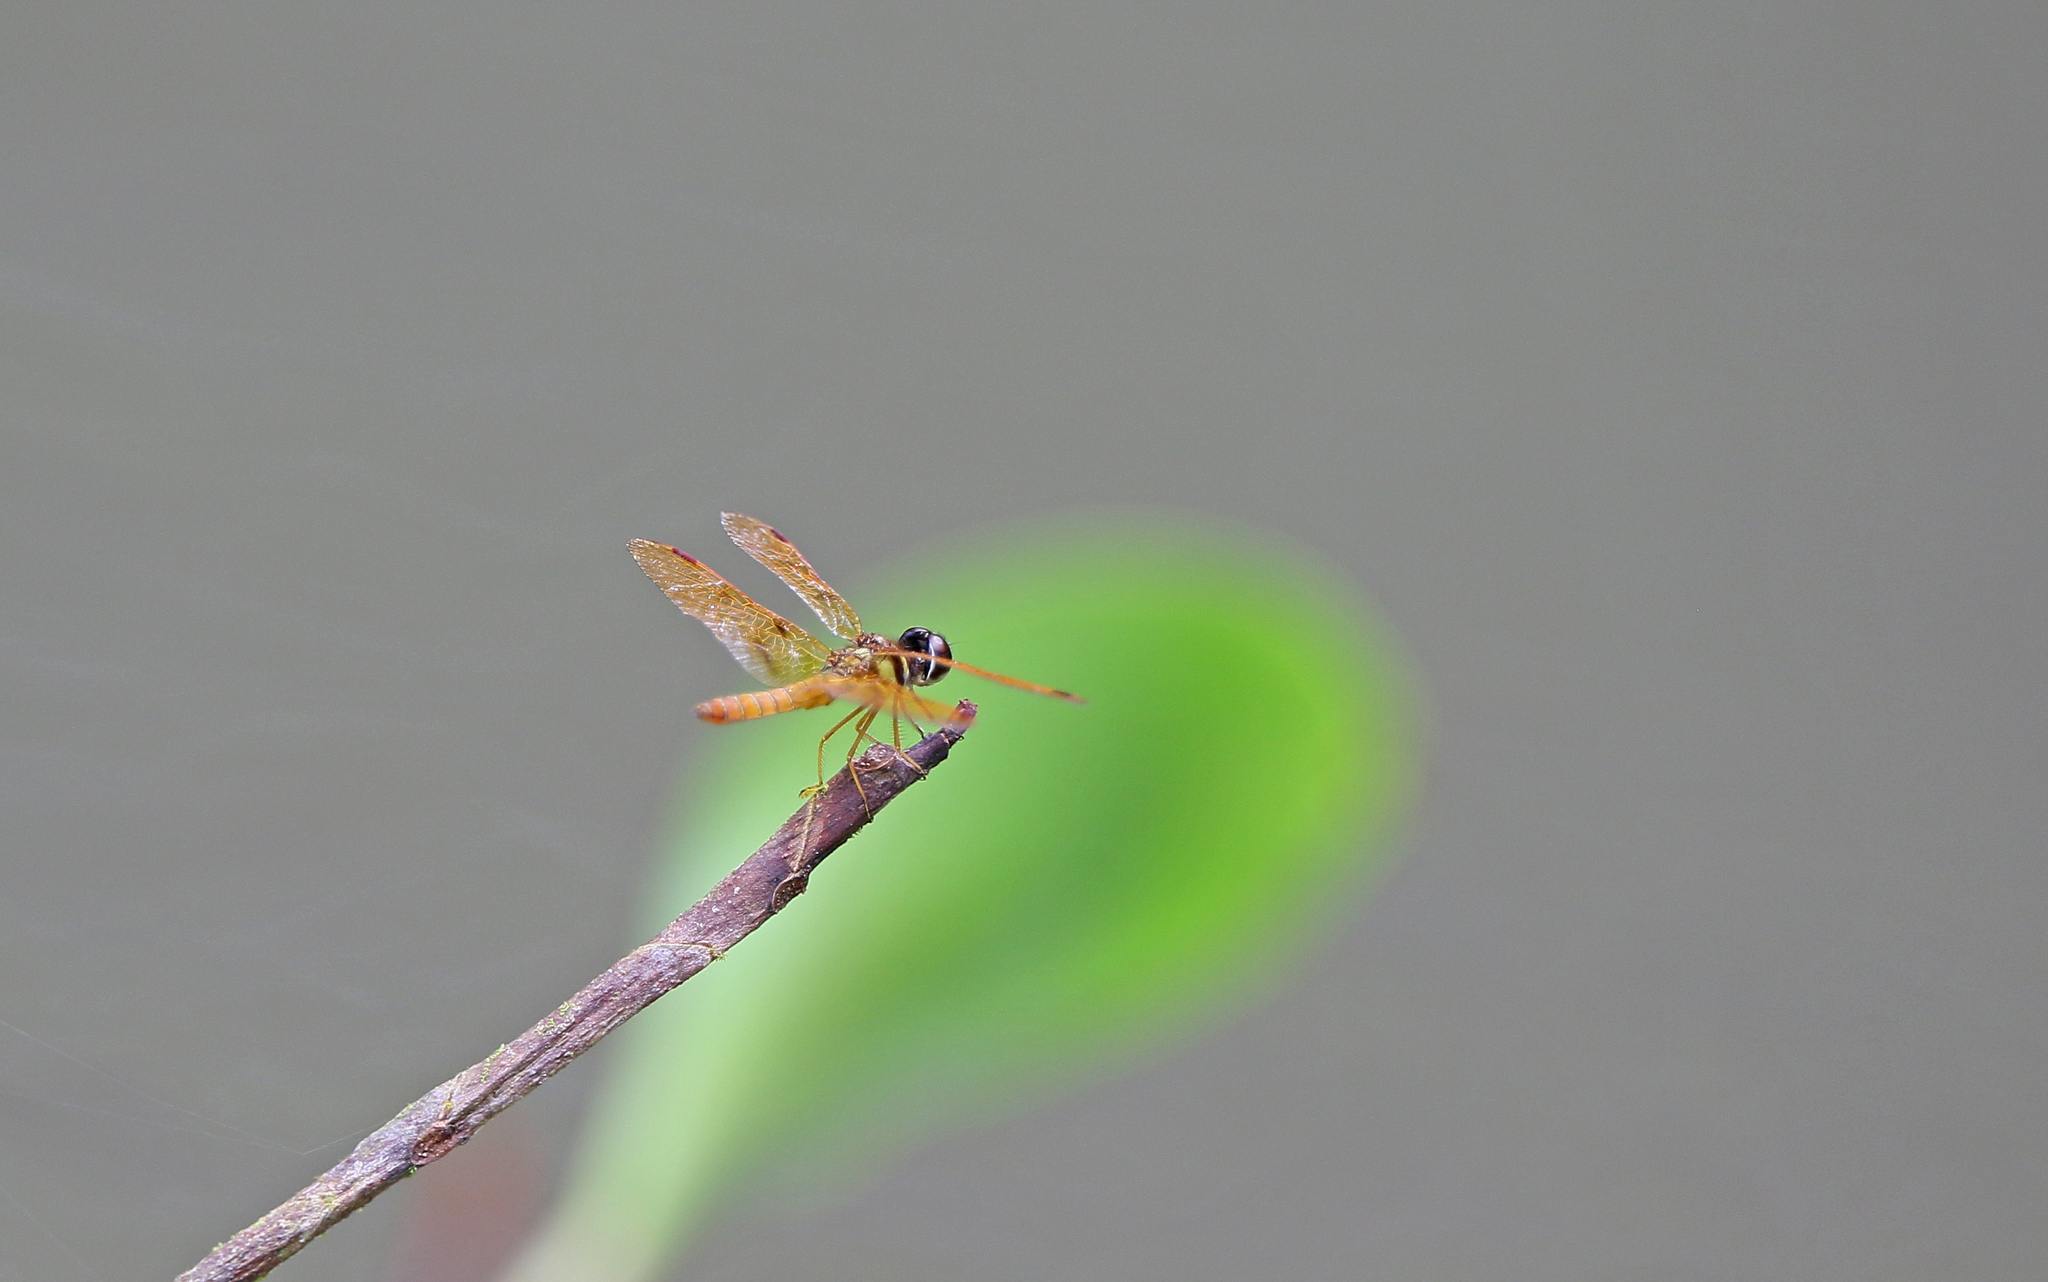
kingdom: Animalia
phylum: Arthropoda
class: Insecta
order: Odonata
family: Libellulidae
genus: Perithemis
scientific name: Perithemis lais
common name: Fine-banded amberwing
